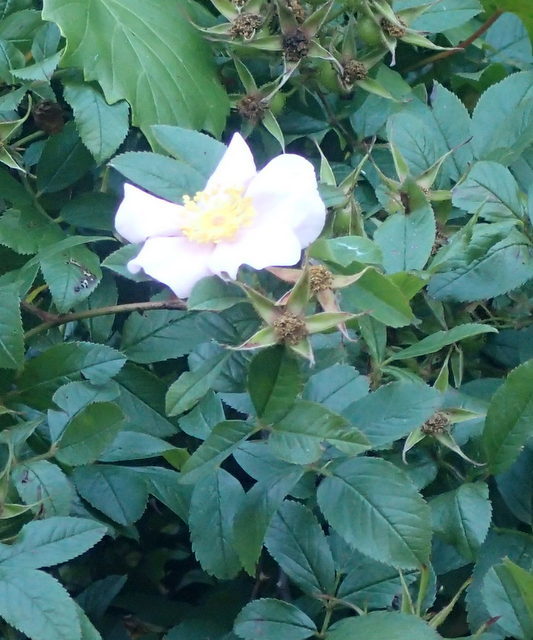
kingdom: Plantae
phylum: Tracheophyta
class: Magnoliopsida
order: Rosales
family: Rosaceae
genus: Rosa
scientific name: Rosa palustris
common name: Swamp rose
